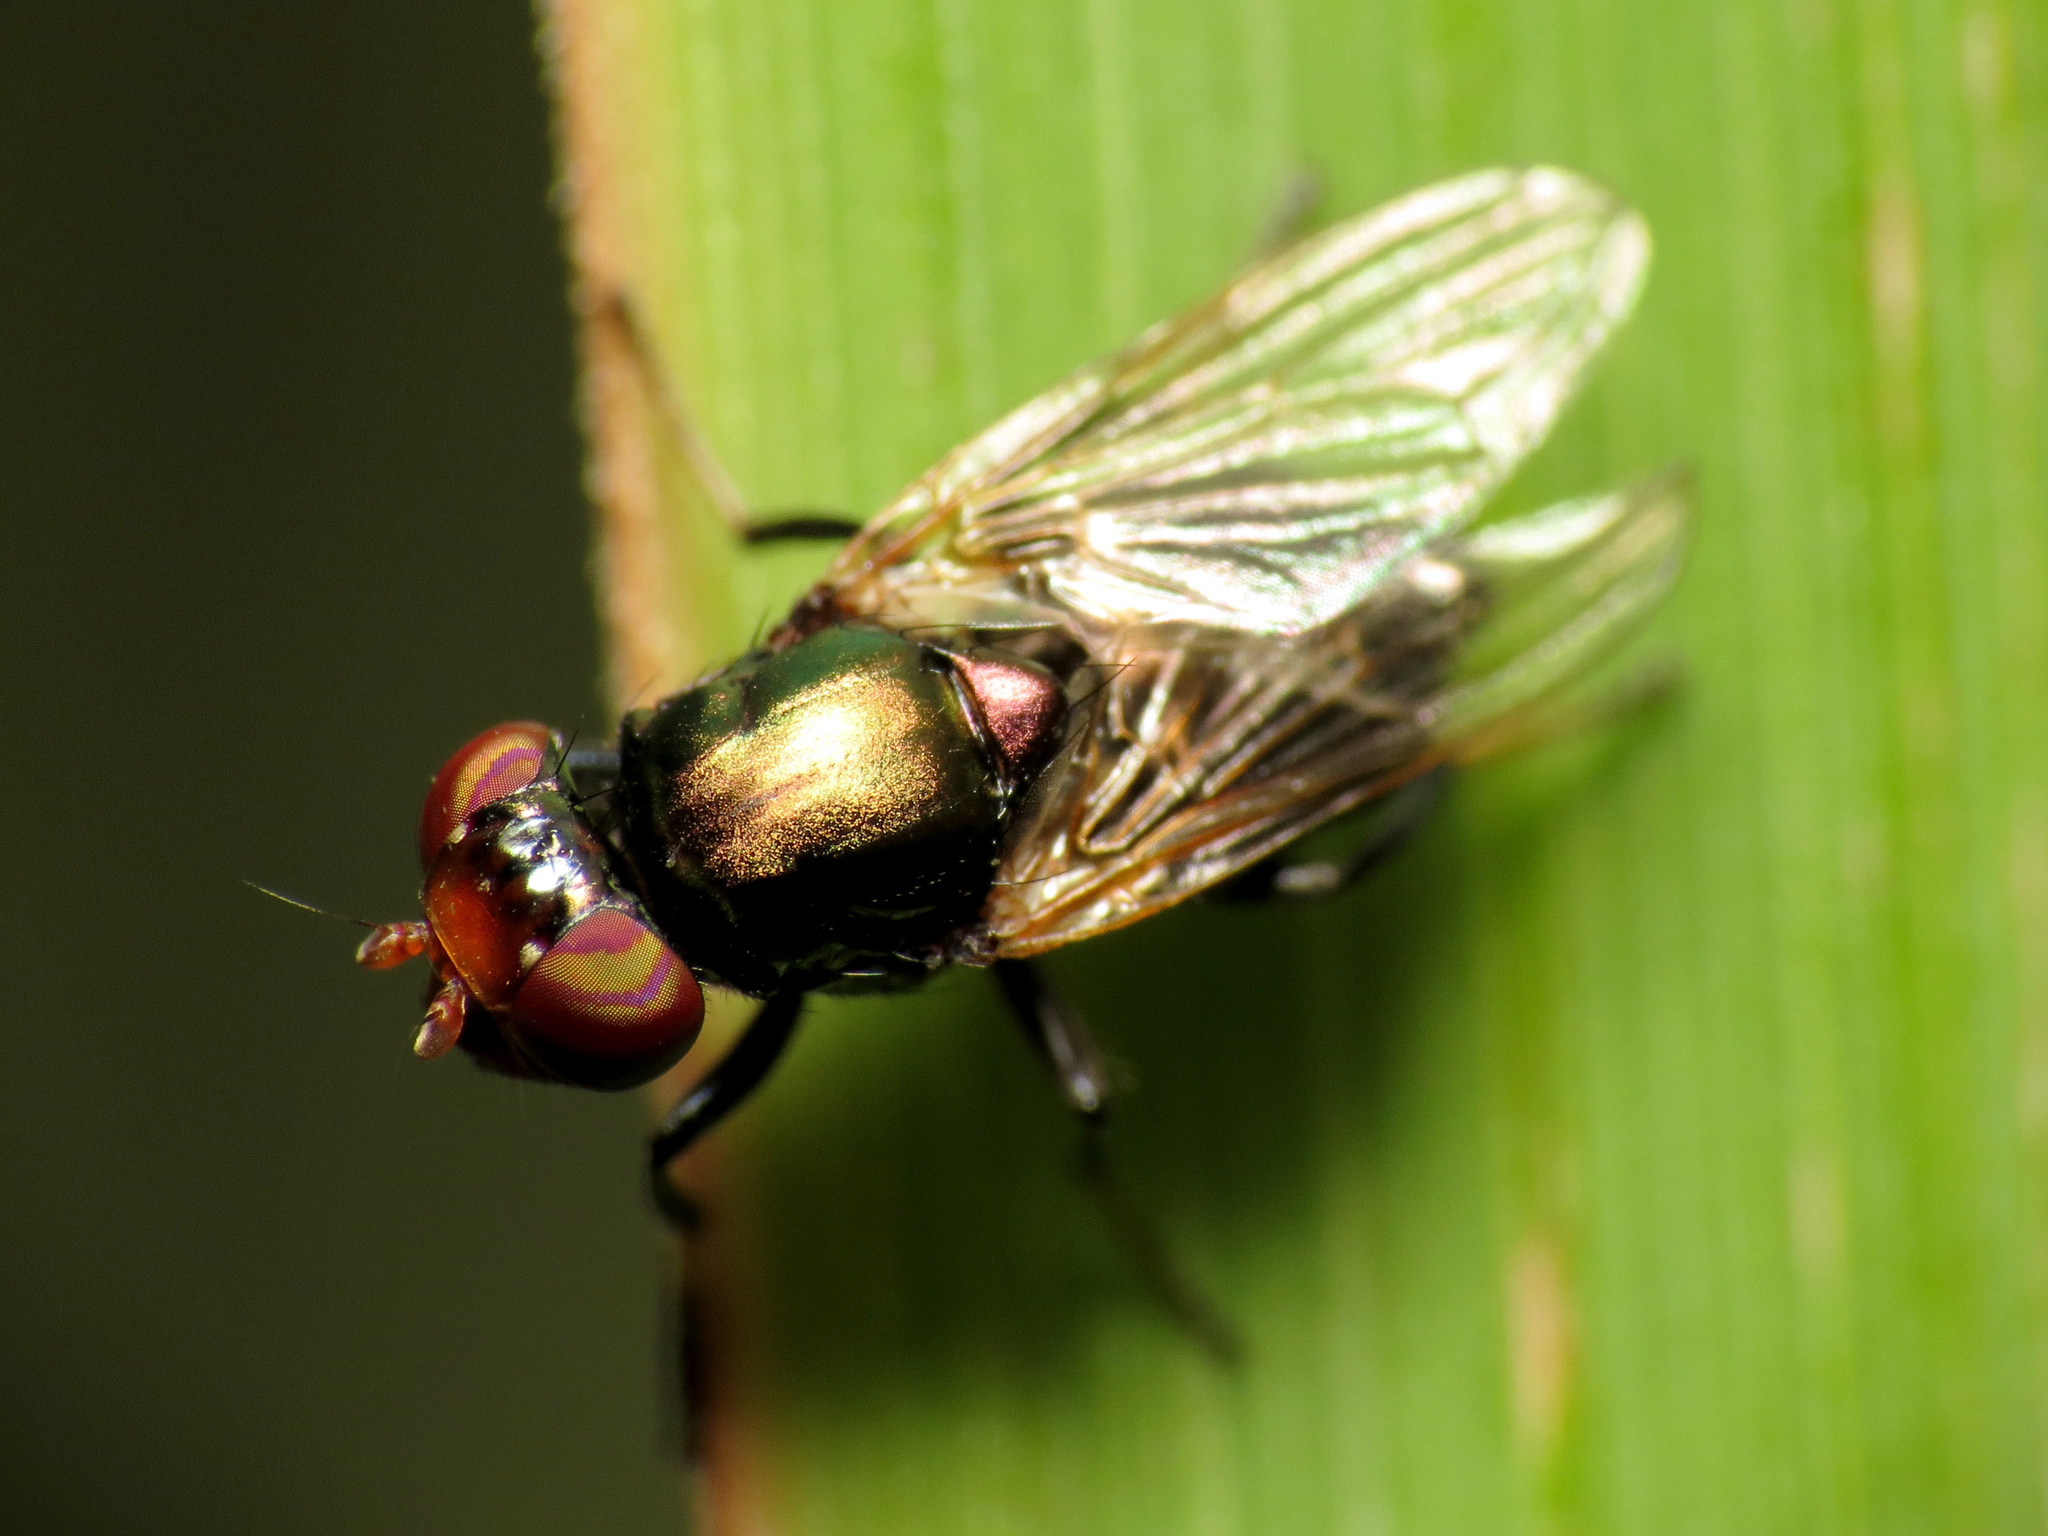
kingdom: Animalia
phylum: Arthropoda
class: Insecta
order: Diptera
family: Ulidiidae
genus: Physiphora
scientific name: Physiphora alceae
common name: Picture-winged fly
